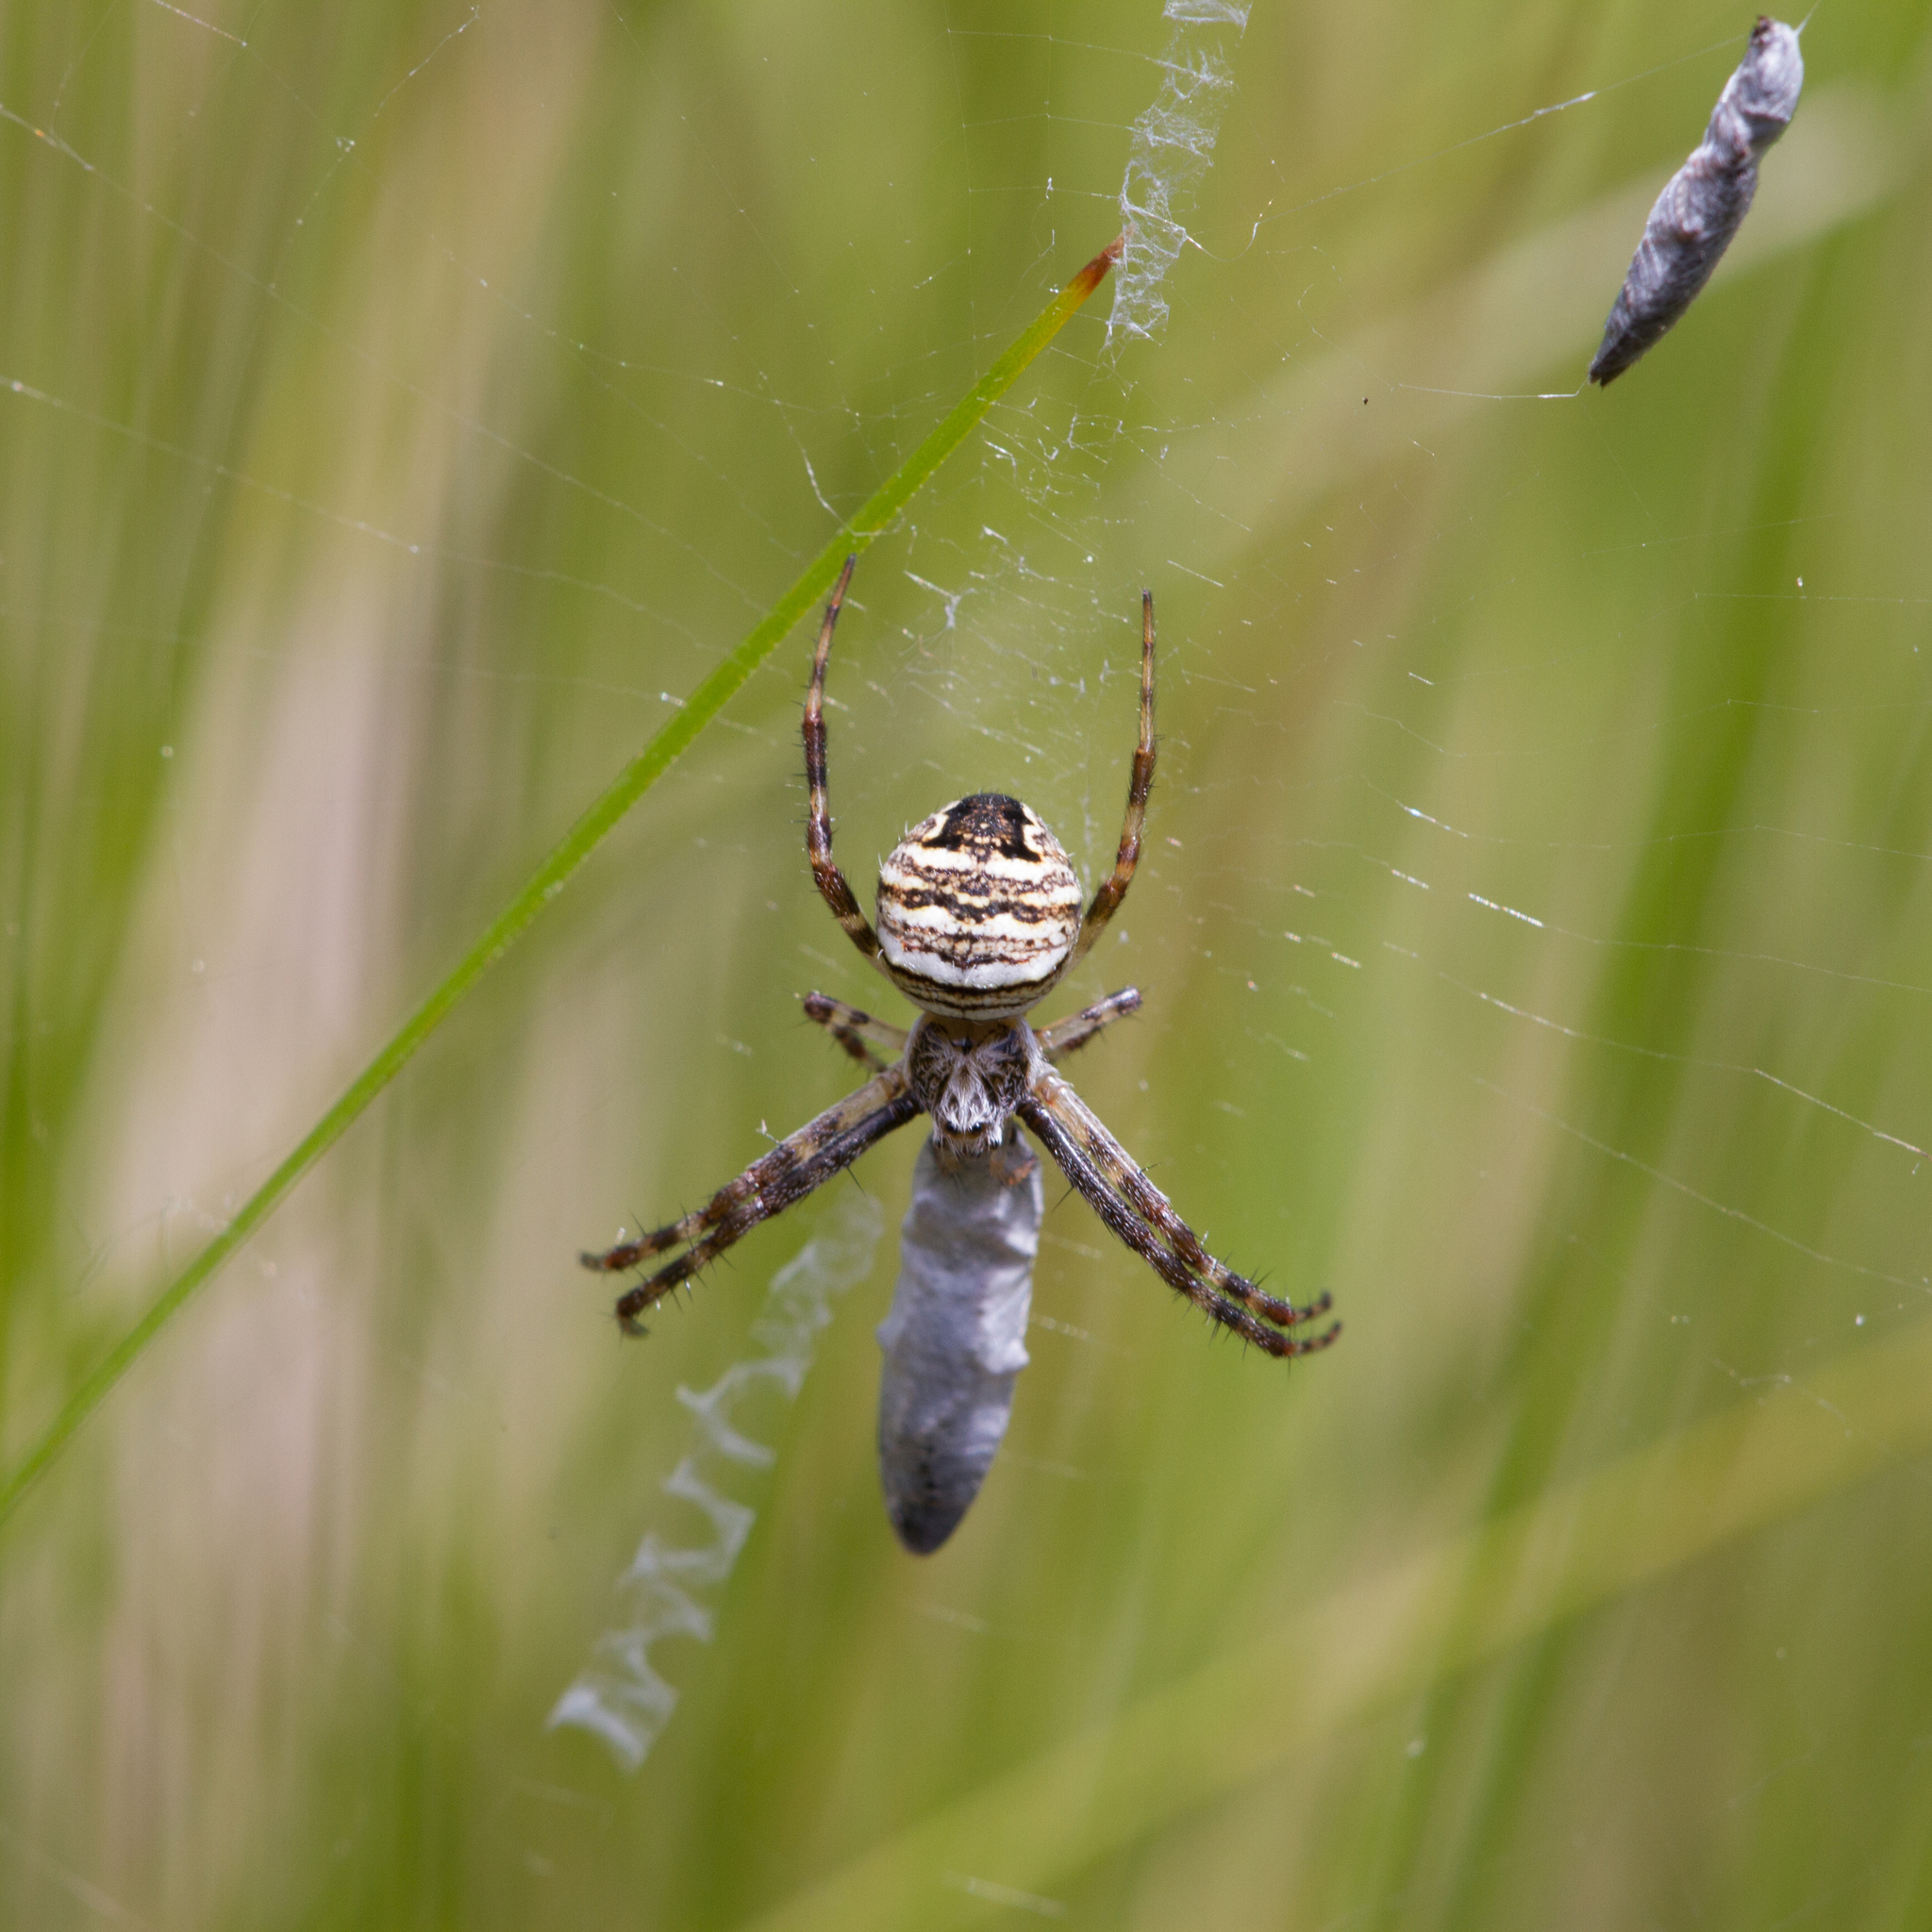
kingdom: Animalia
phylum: Arthropoda
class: Arachnida
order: Araneae
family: Araneidae
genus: Gea
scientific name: Gea theridioides
